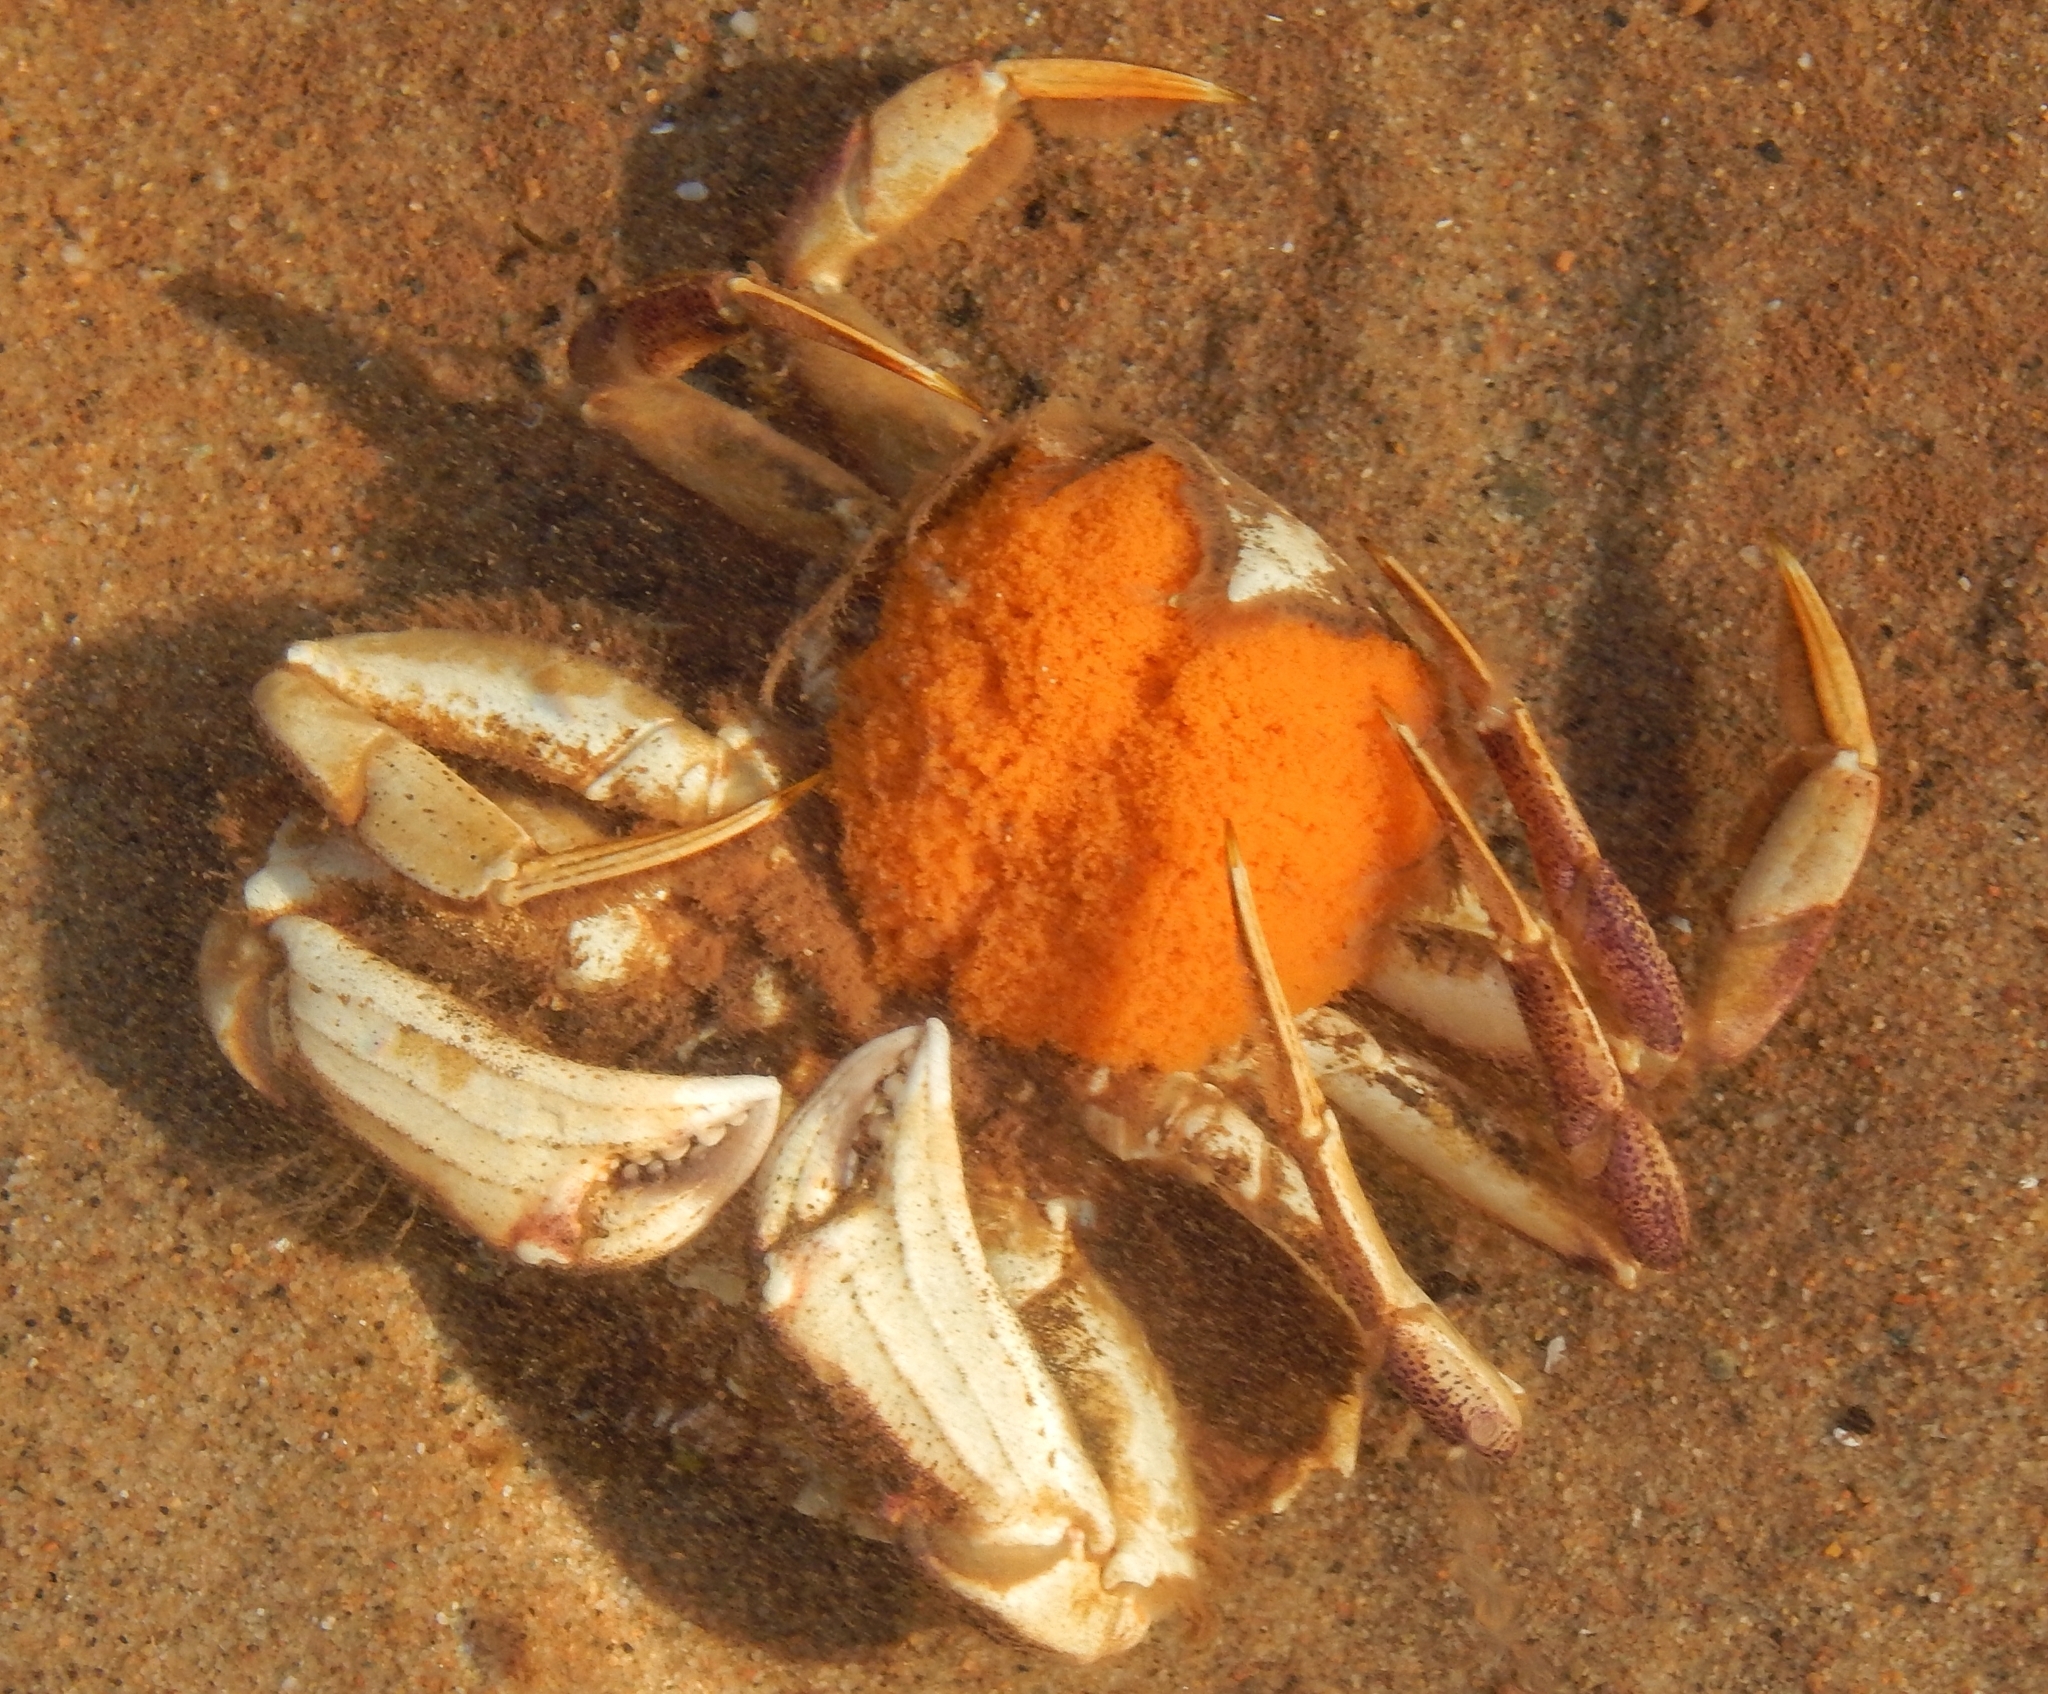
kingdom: Animalia
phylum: Arthropoda
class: Malacostraca
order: Decapoda
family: Cancridae
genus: Cancer
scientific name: Cancer irroratus
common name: Atlantic rock crab
